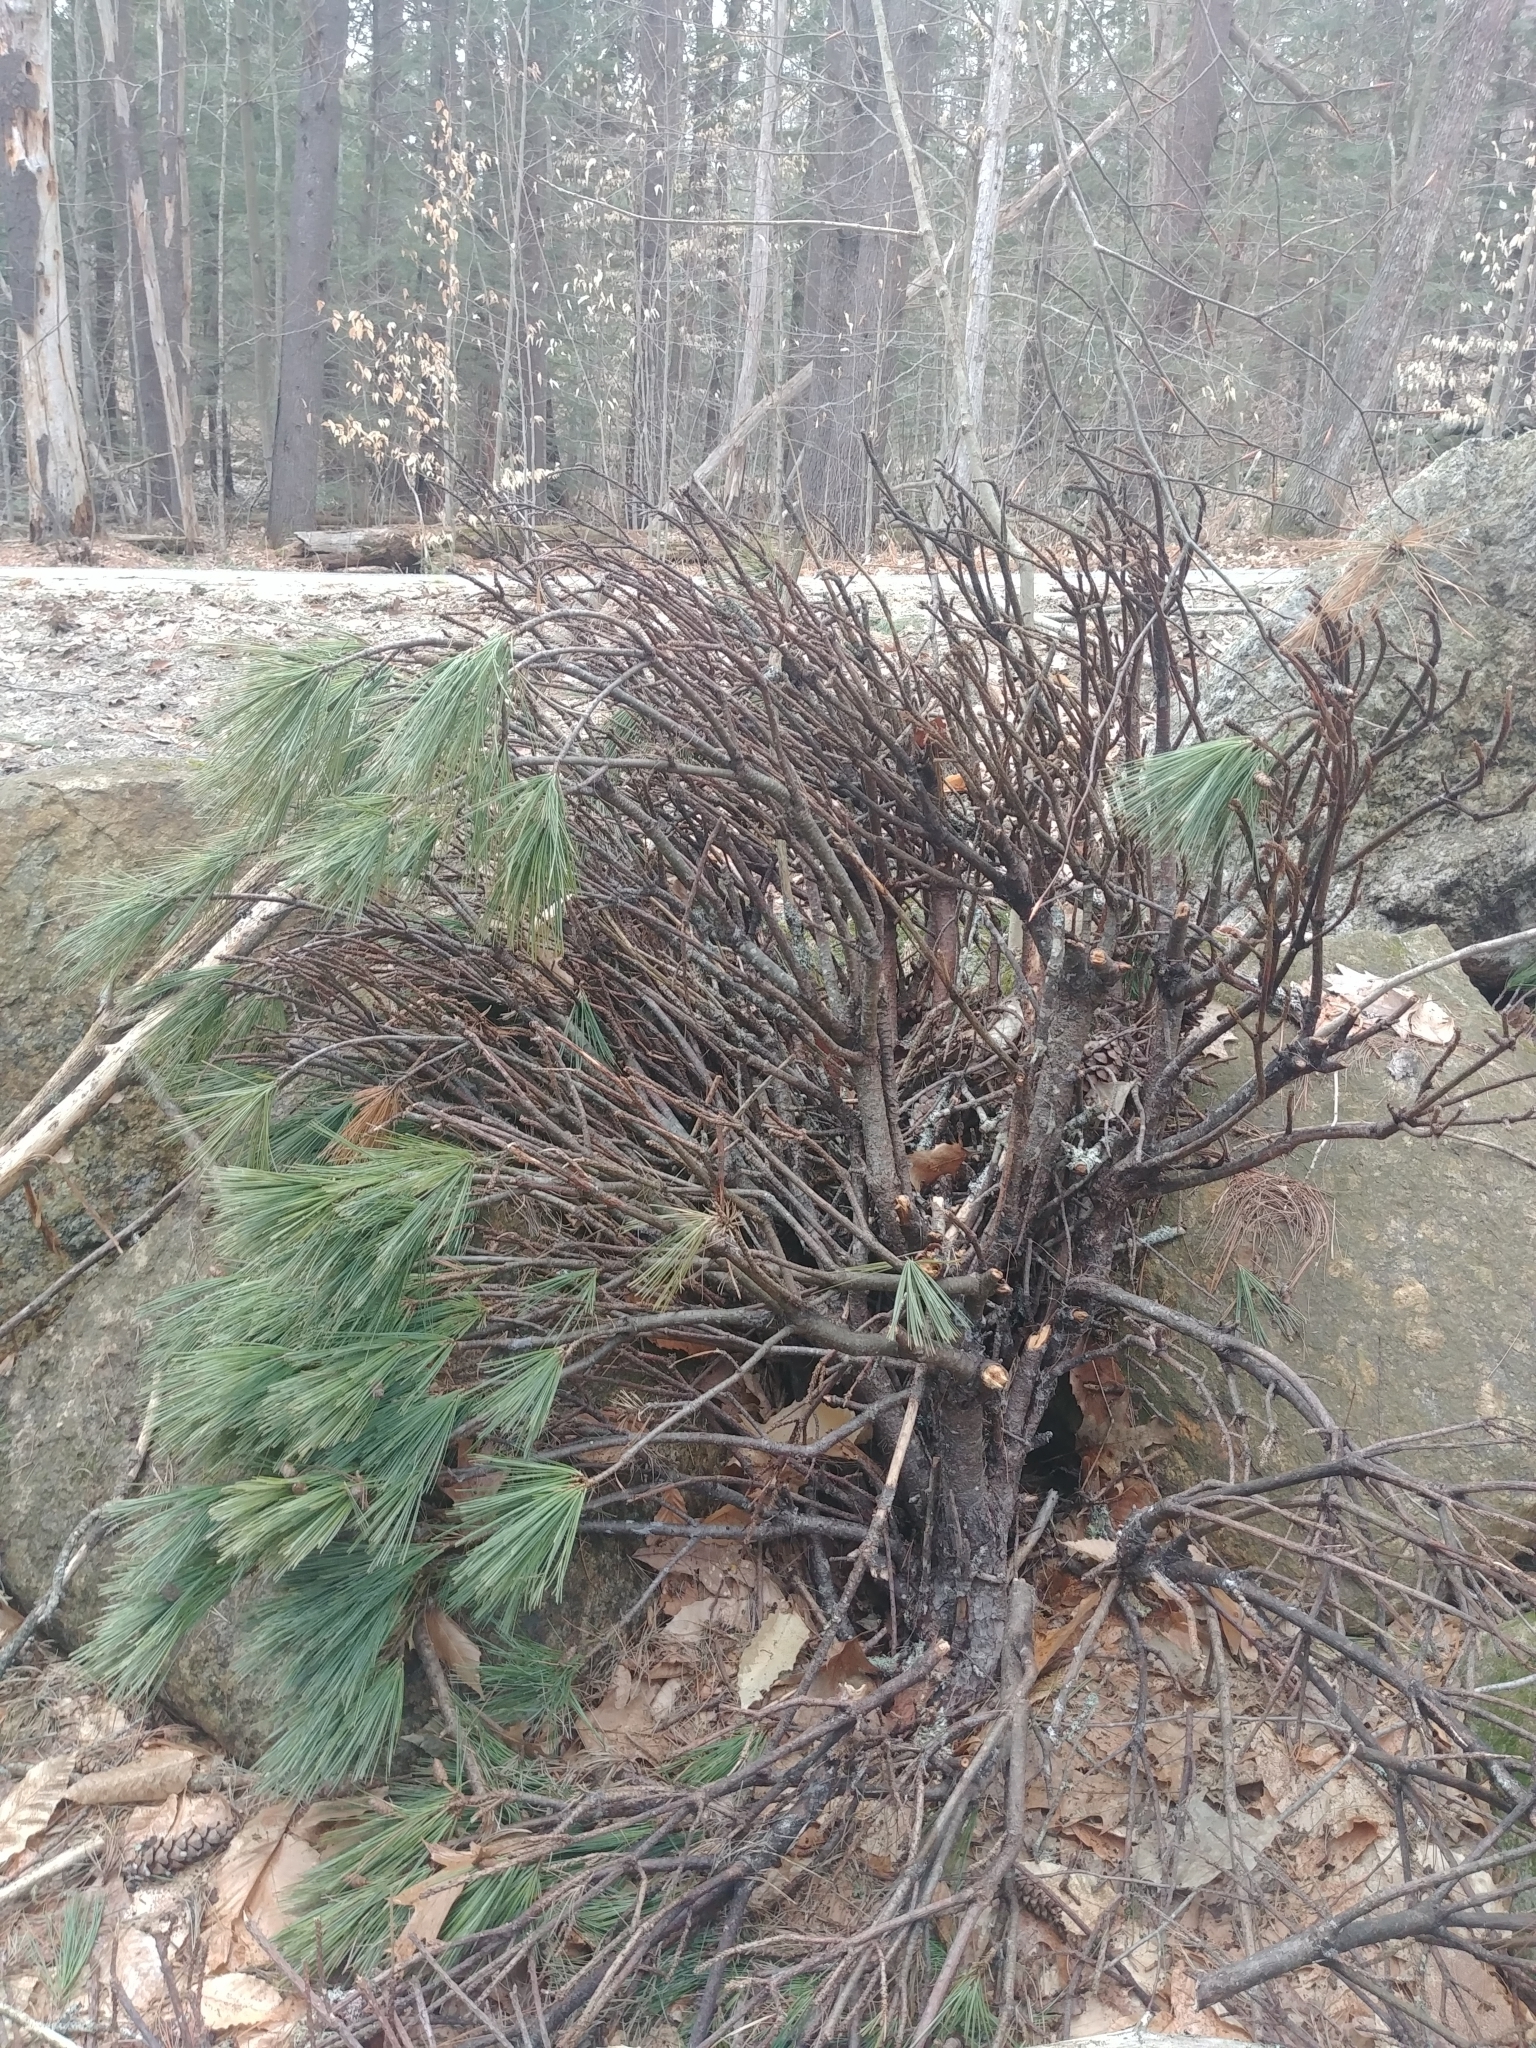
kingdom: Plantae
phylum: Tracheophyta
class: Pinopsida
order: Pinales
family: Pinaceae
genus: Pinus
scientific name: Pinus strobus
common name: Weymouth pine
